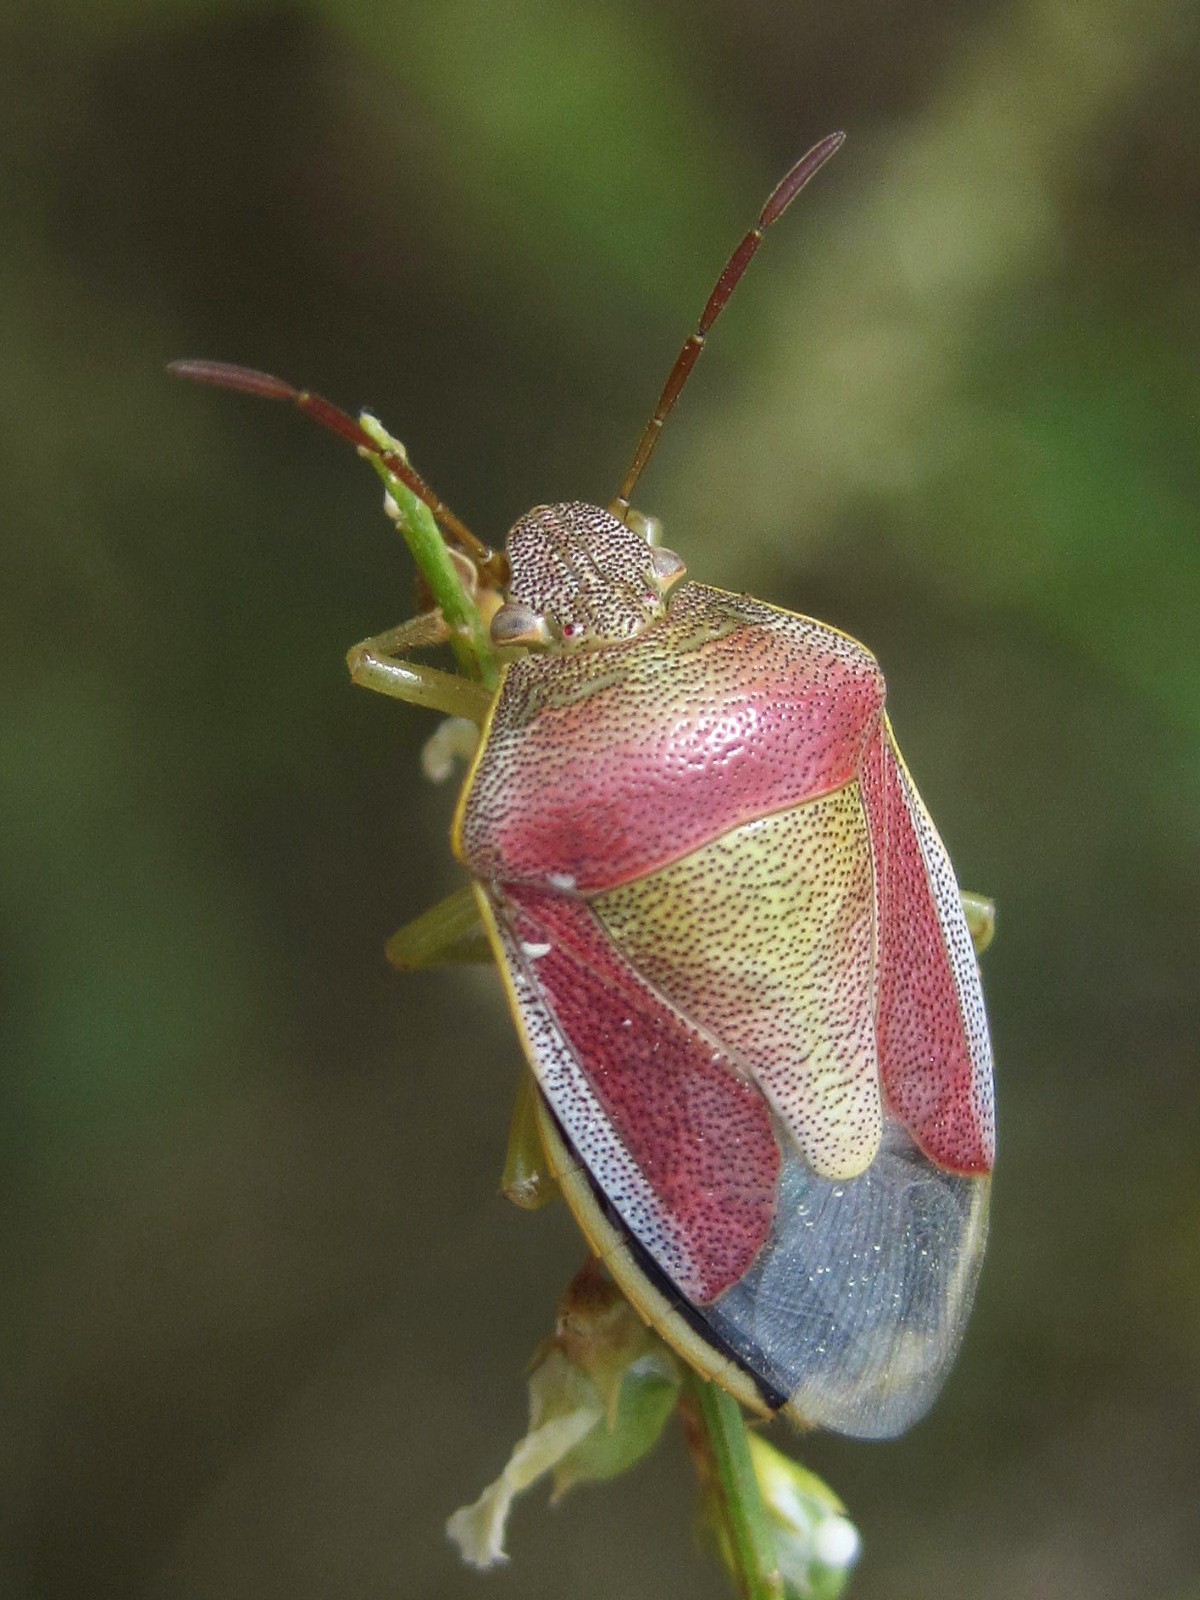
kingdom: Animalia
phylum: Arthropoda
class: Insecta
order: Hemiptera
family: Pentatomidae
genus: Piezodorus
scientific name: Piezodorus lituratus
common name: Stink bug
